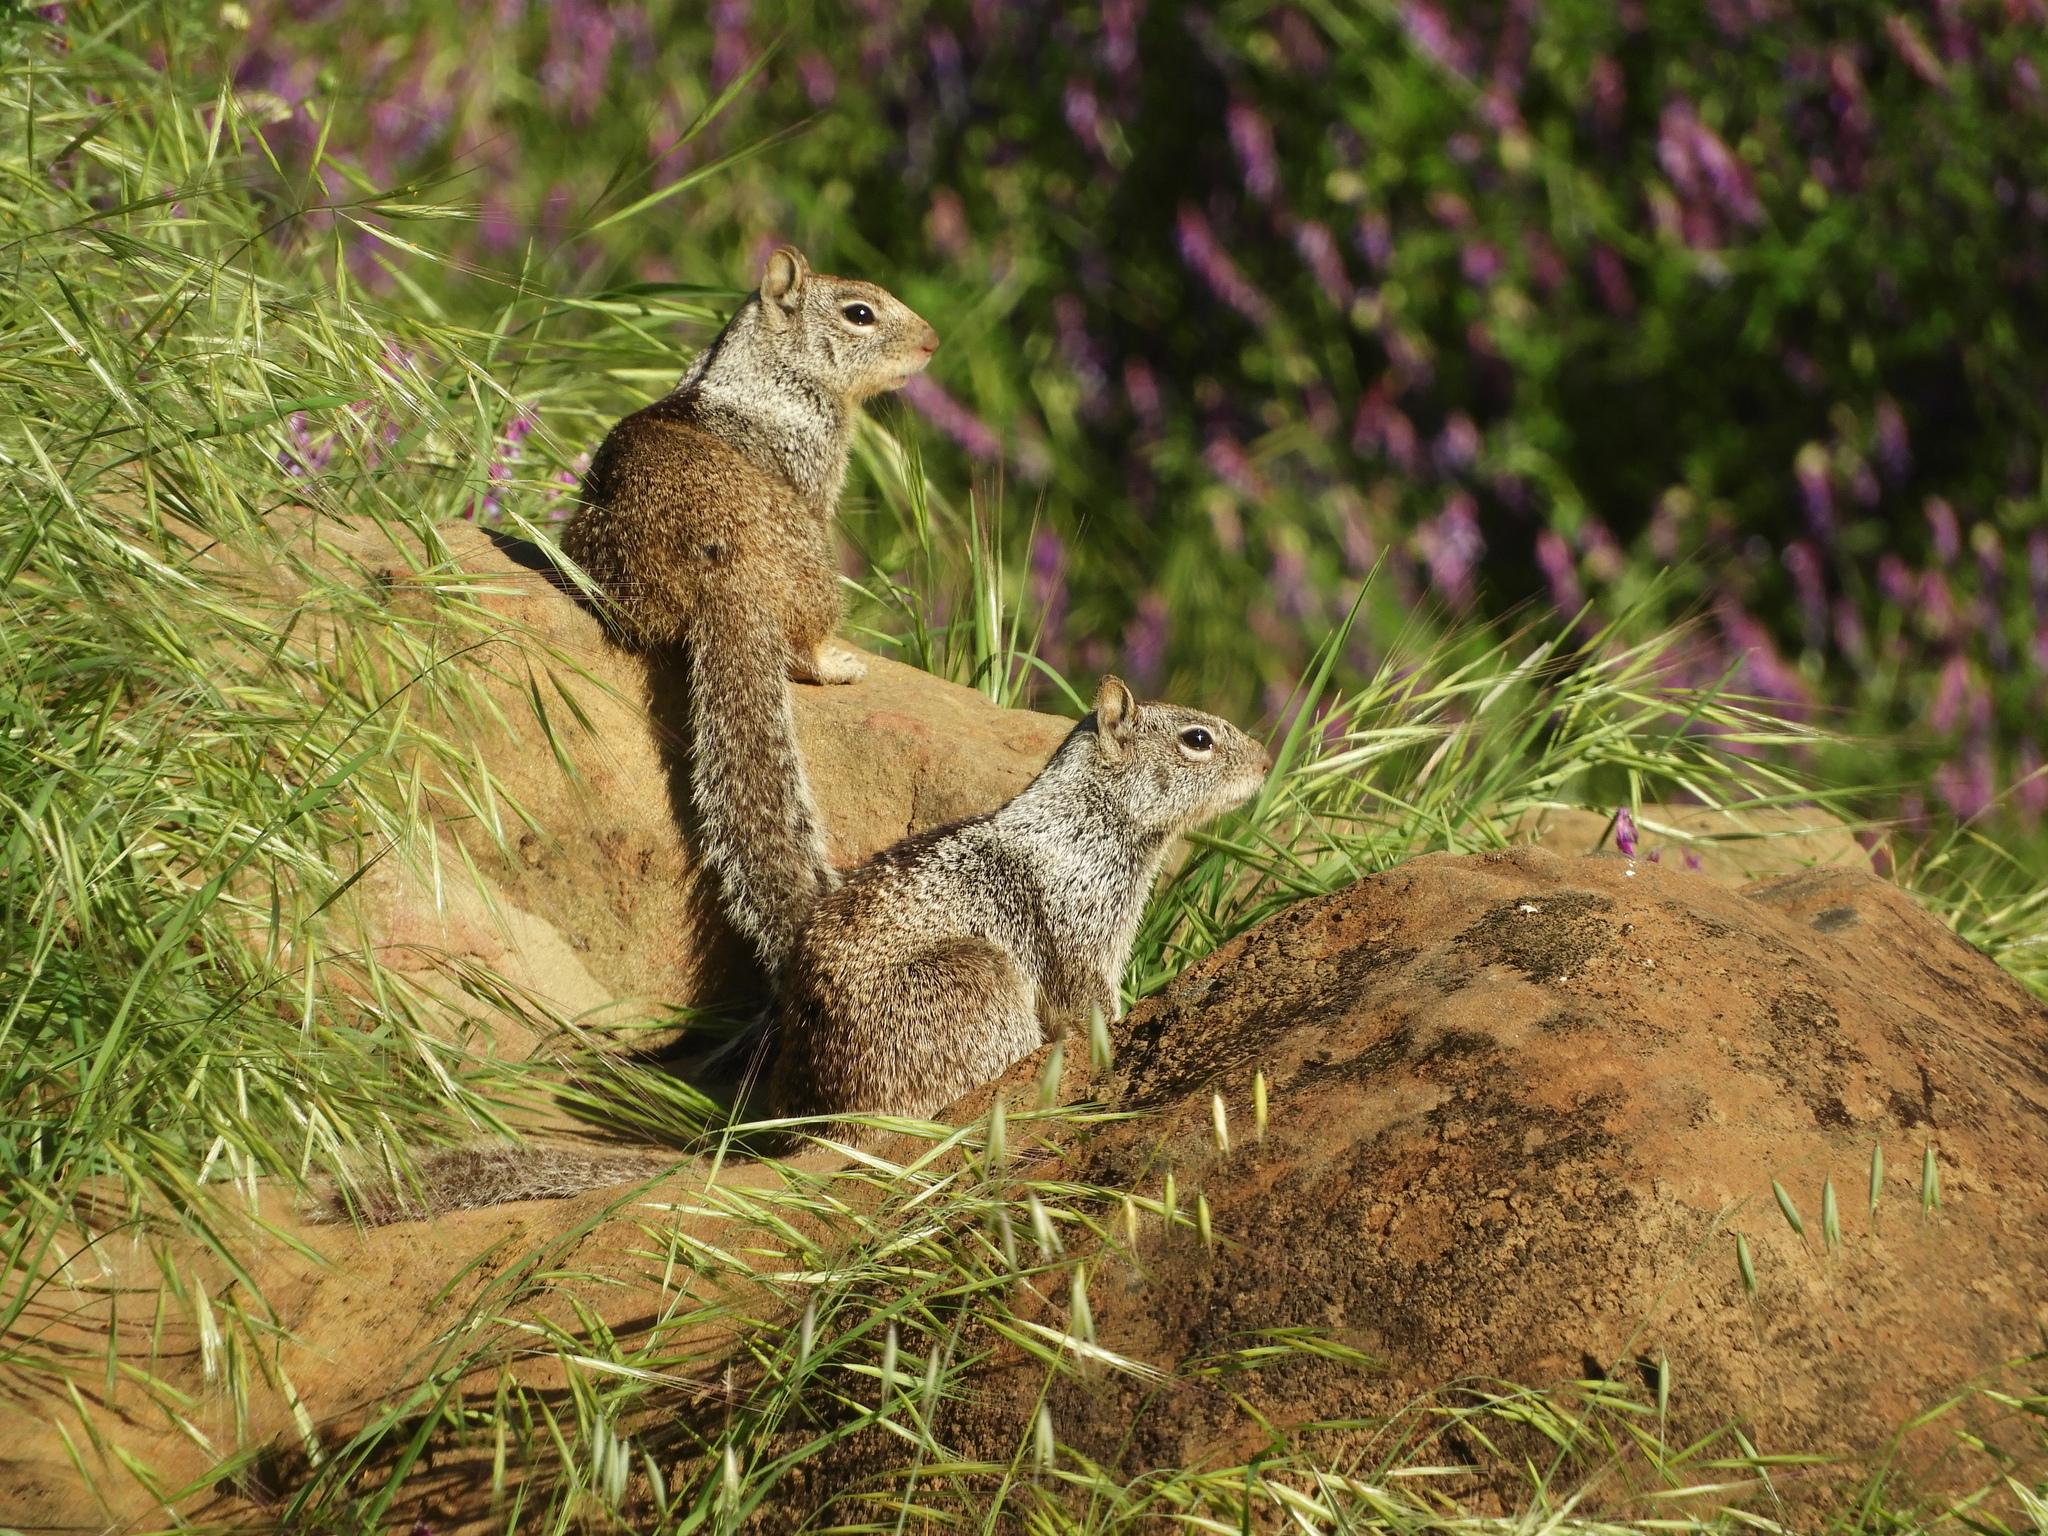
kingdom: Animalia
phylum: Chordata
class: Mammalia
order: Rodentia
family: Sciuridae
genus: Otospermophilus
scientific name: Otospermophilus beecheyi
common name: California ground squirrel
